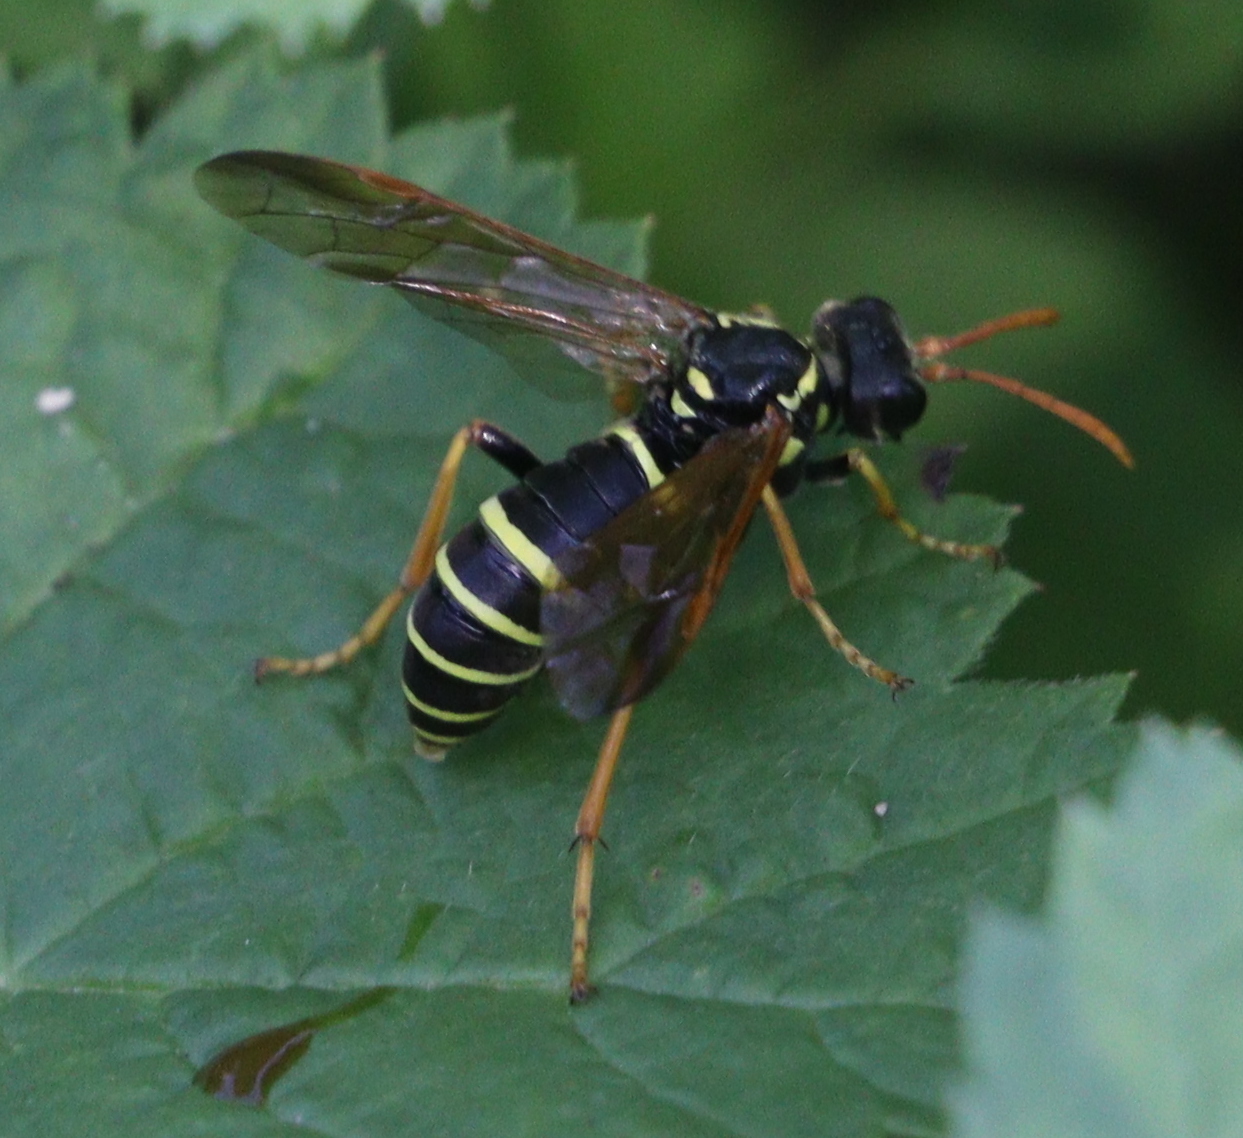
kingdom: Animalia
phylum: Arthropoda
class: Insecta
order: Hymenoptera
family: Tenthredinidae
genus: Tenthredo
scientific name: Tenthredo scrophulariae
